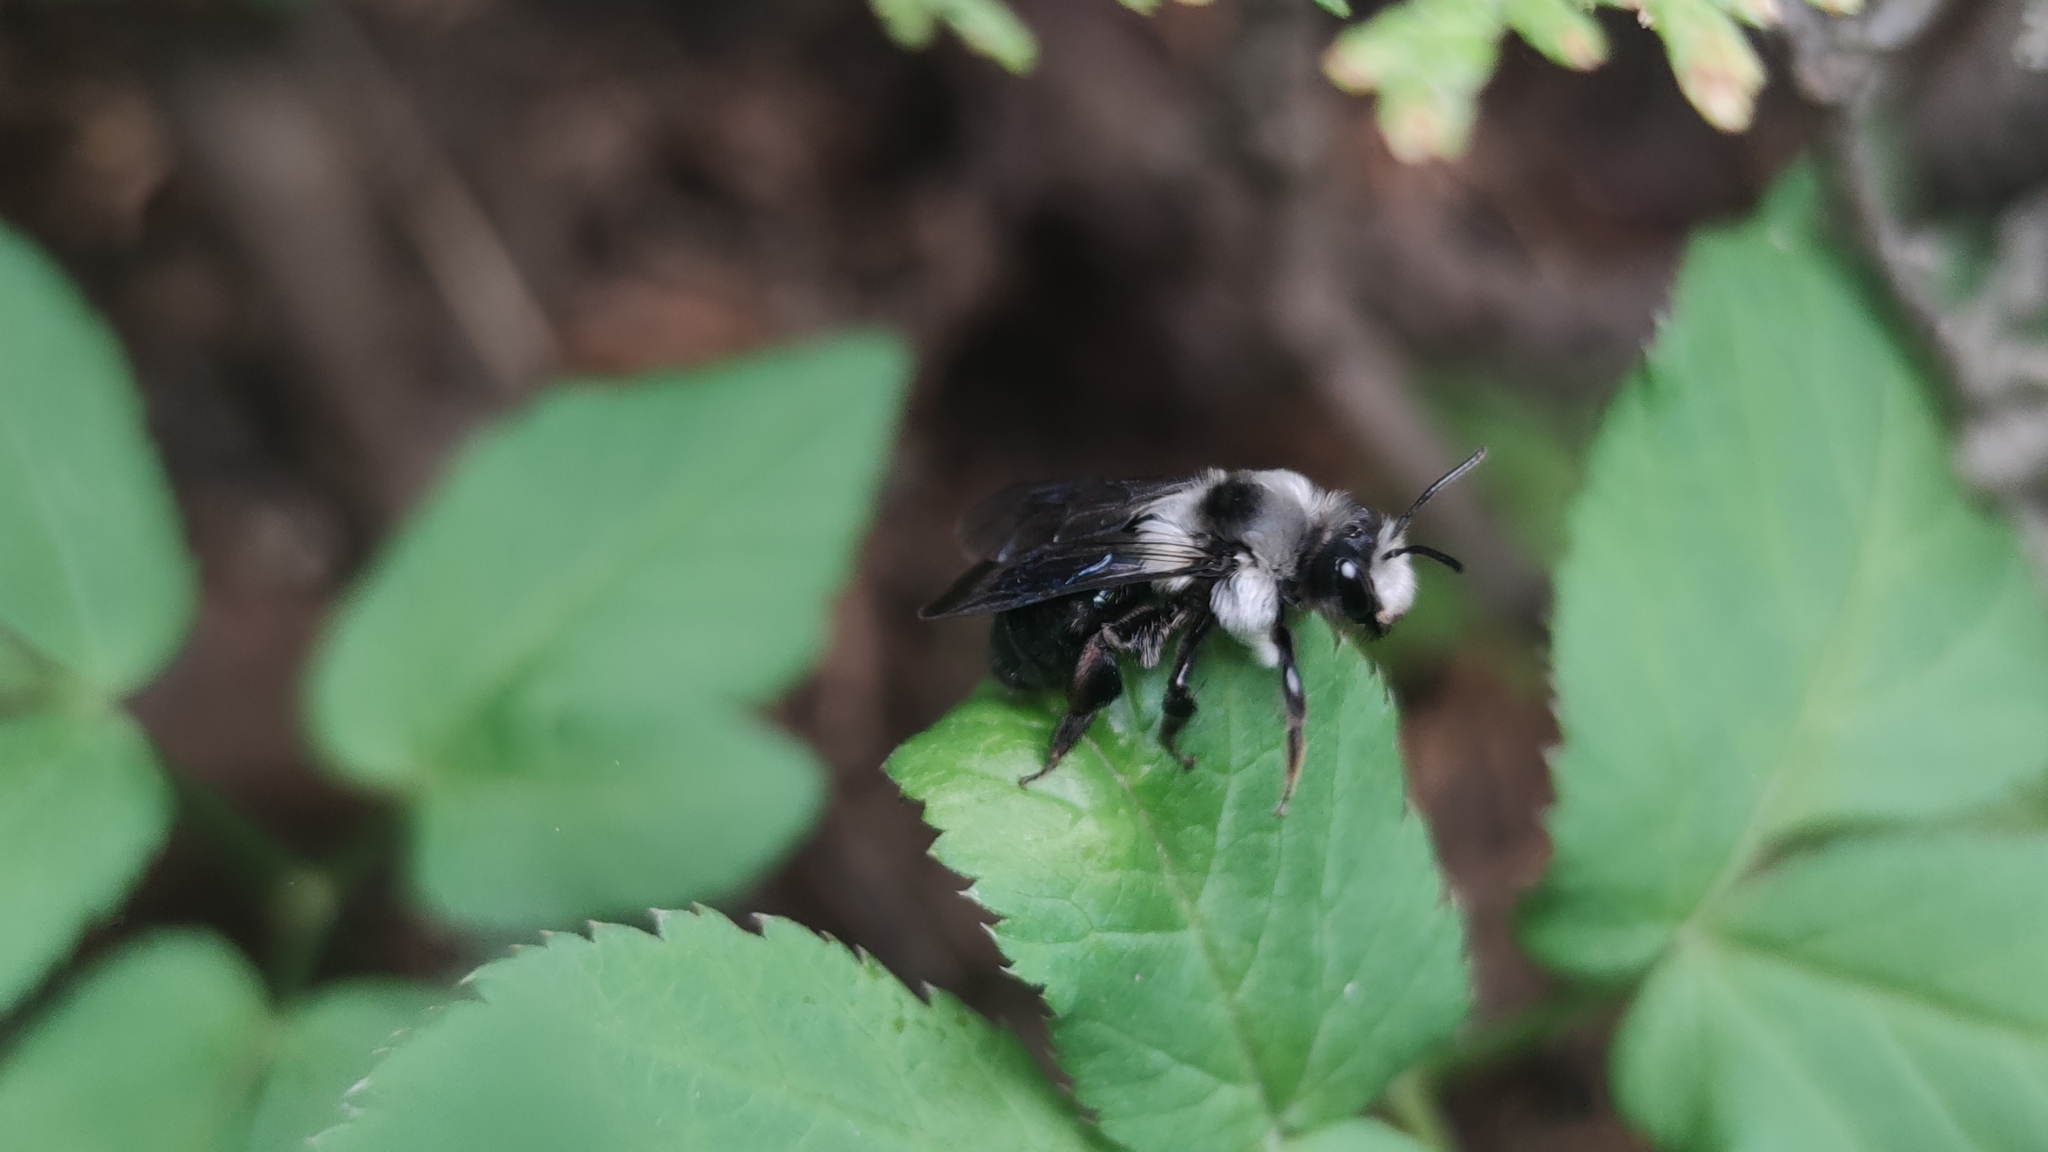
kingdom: Animalia
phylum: Arthropoda
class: Insecta
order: Hymenoptera
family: Andrenidae
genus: Andrena
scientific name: Andrena cineraria
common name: Ashy mining bee
